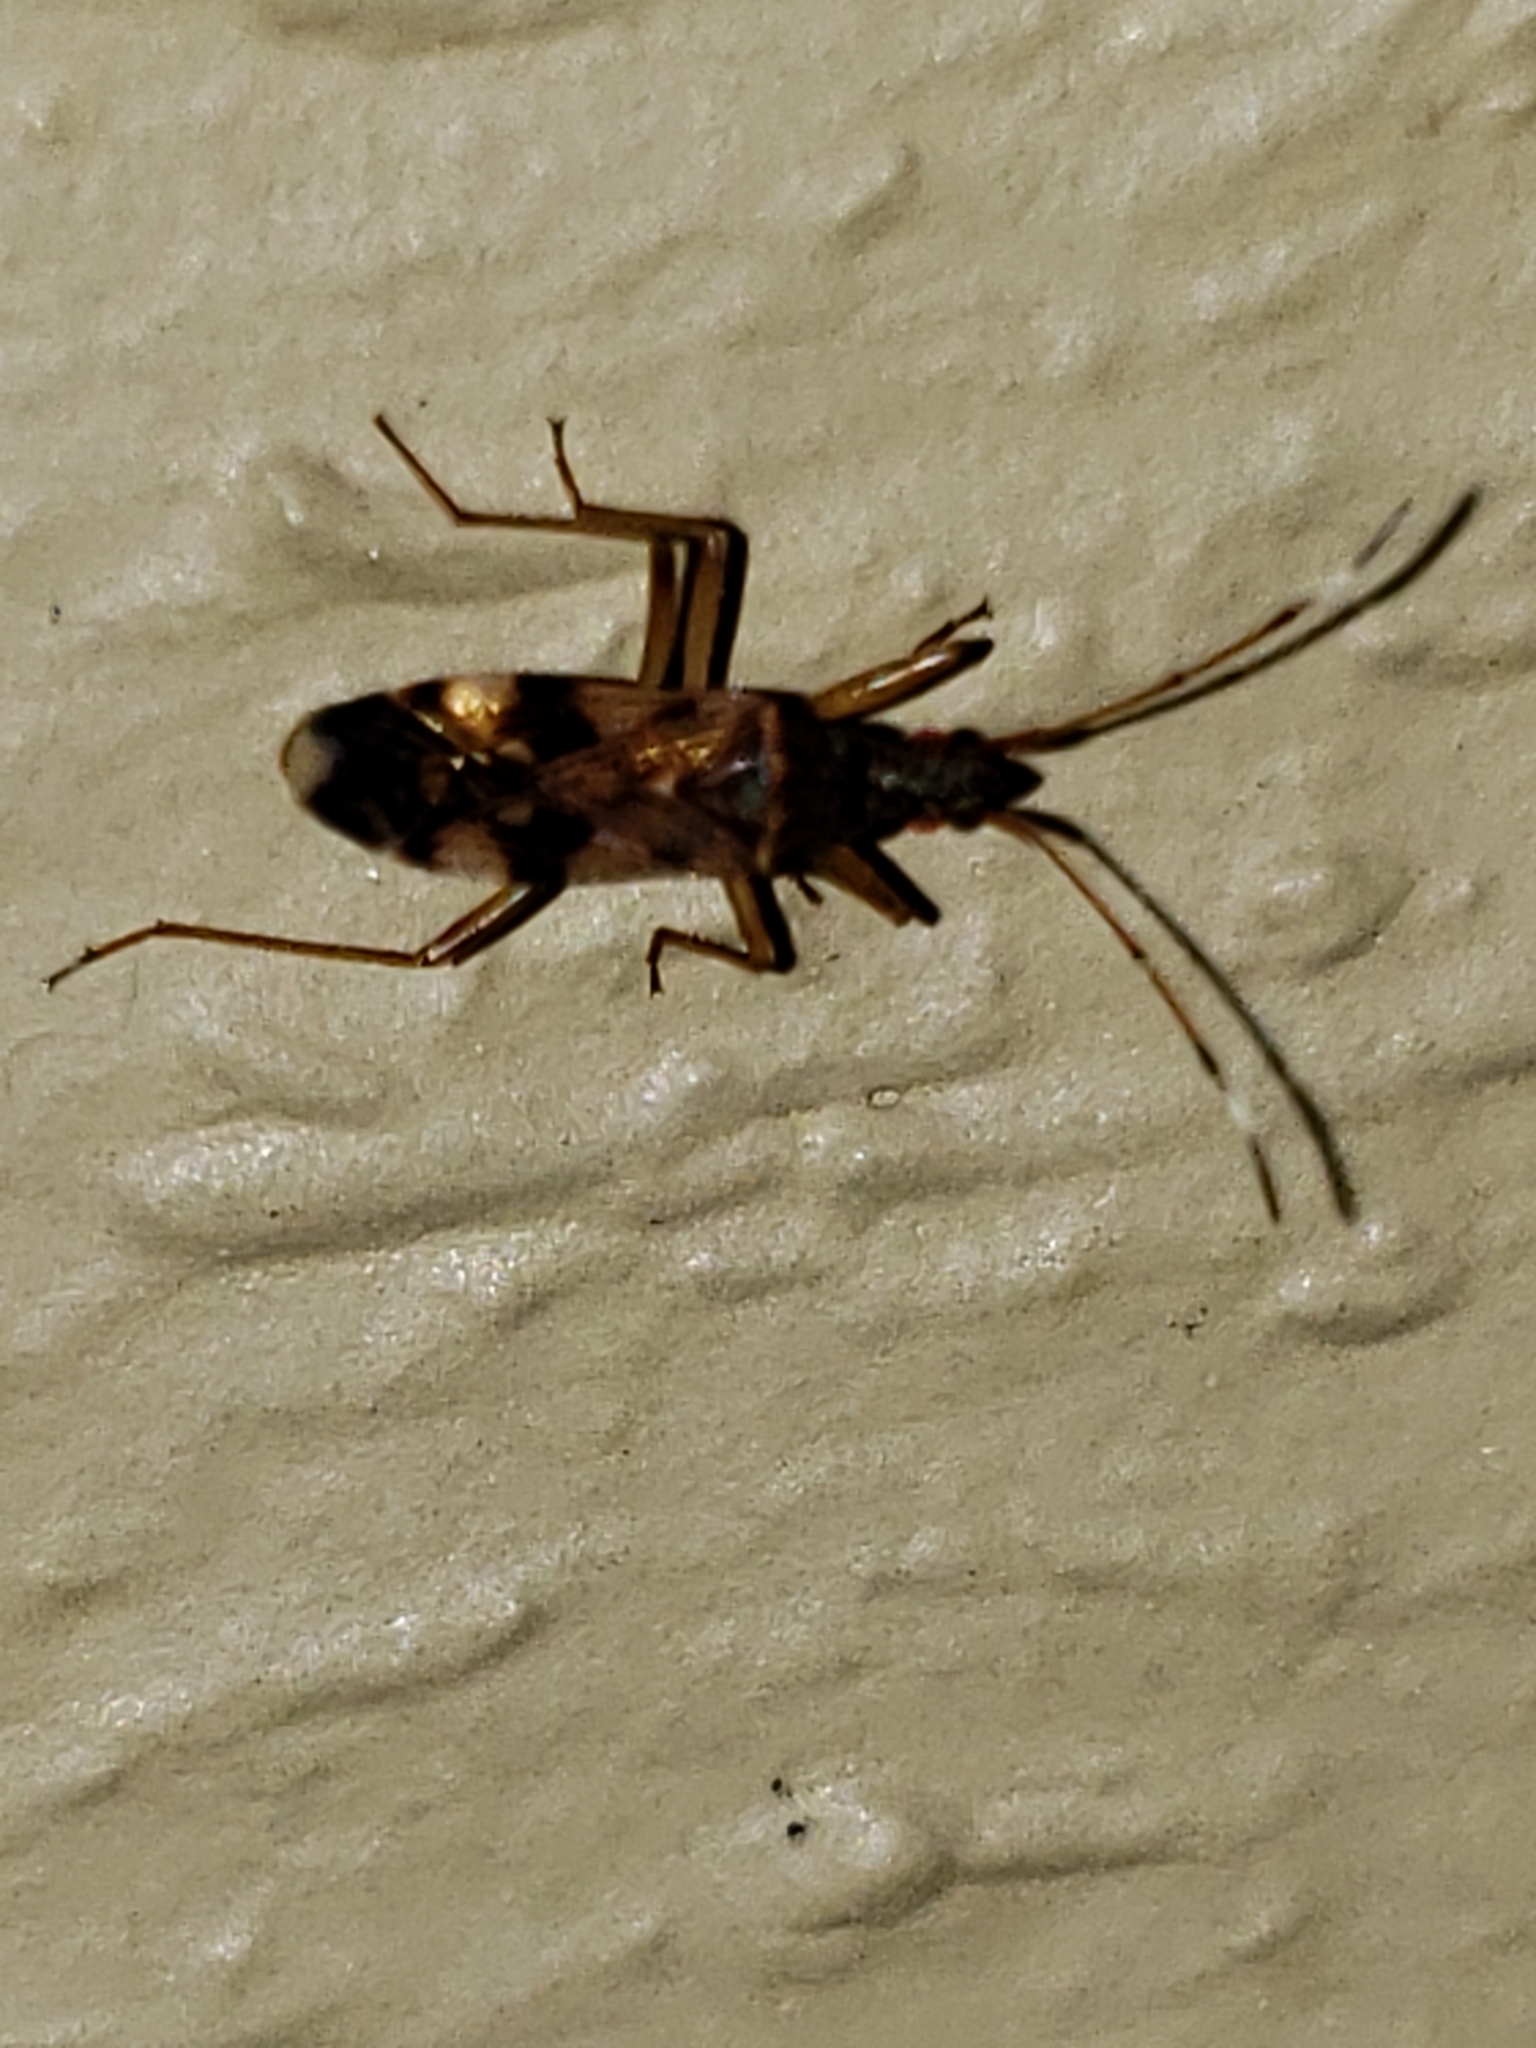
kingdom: Animalia
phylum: Arthropoda
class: Insecta
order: Hemiptera
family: Rhyparochromidae
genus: Ozophora
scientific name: Ozophora picturata
